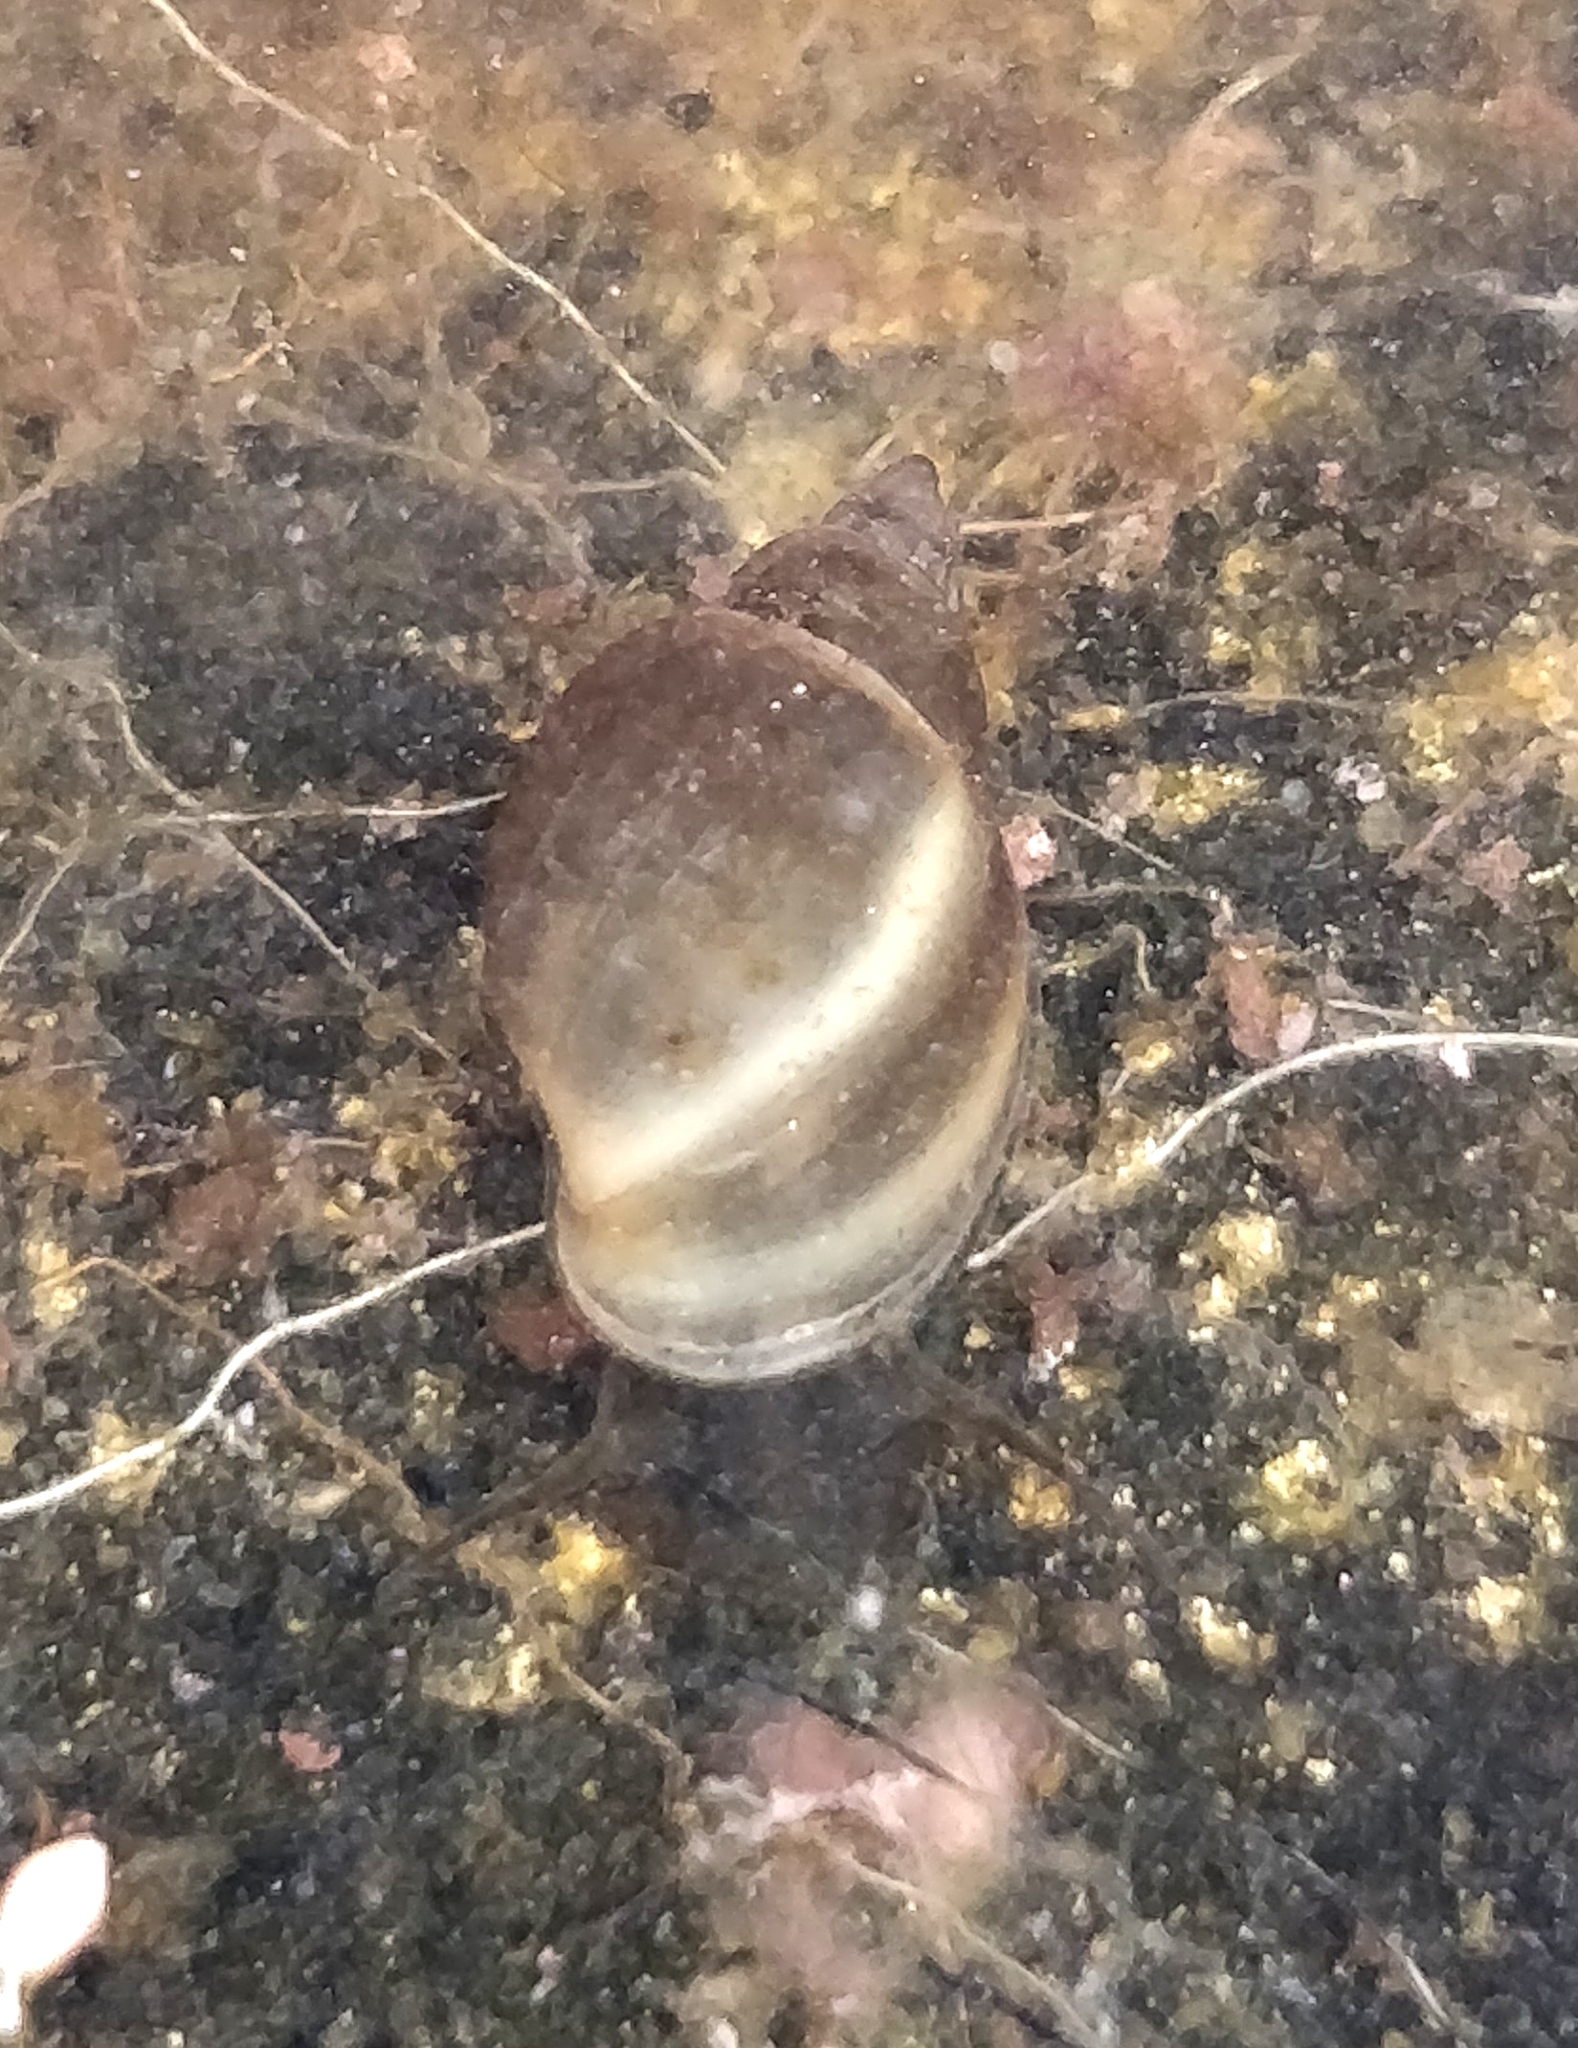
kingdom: Animalia
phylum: Mollusca
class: Gastropoda
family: Physidae
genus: Physella
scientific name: Physella acuta
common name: European physa
